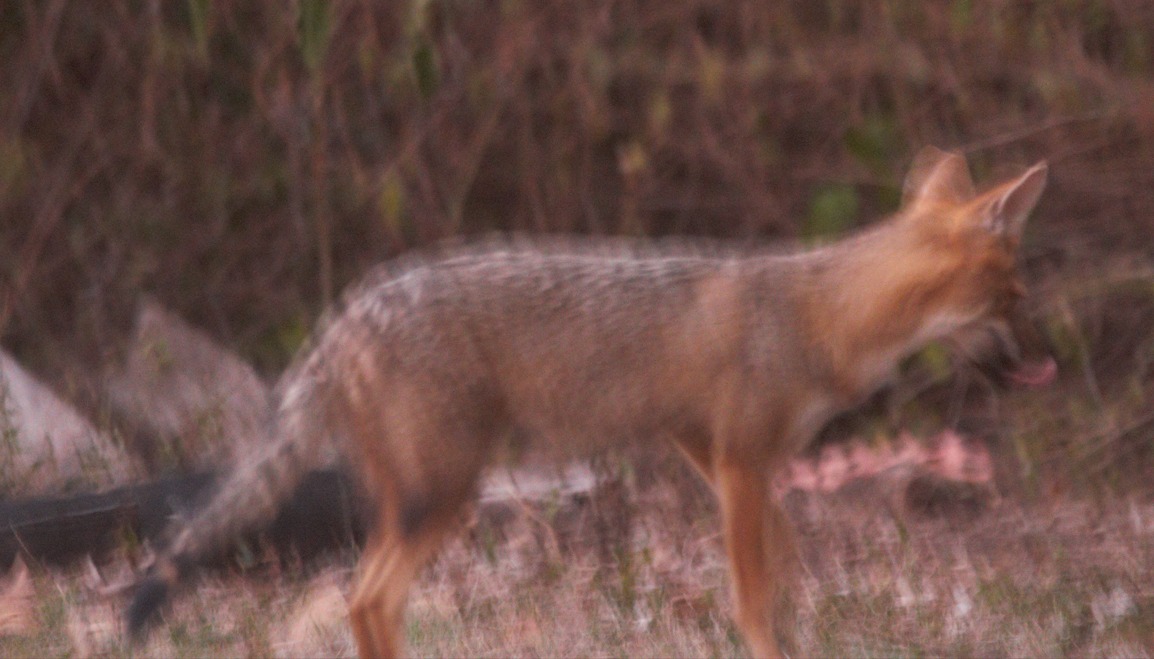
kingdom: Animalia
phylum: Chordata
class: Mammalia
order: Carnivora
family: Canidae
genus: Lycalopex
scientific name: Lycalopex gymnocercus
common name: Pampas fox
